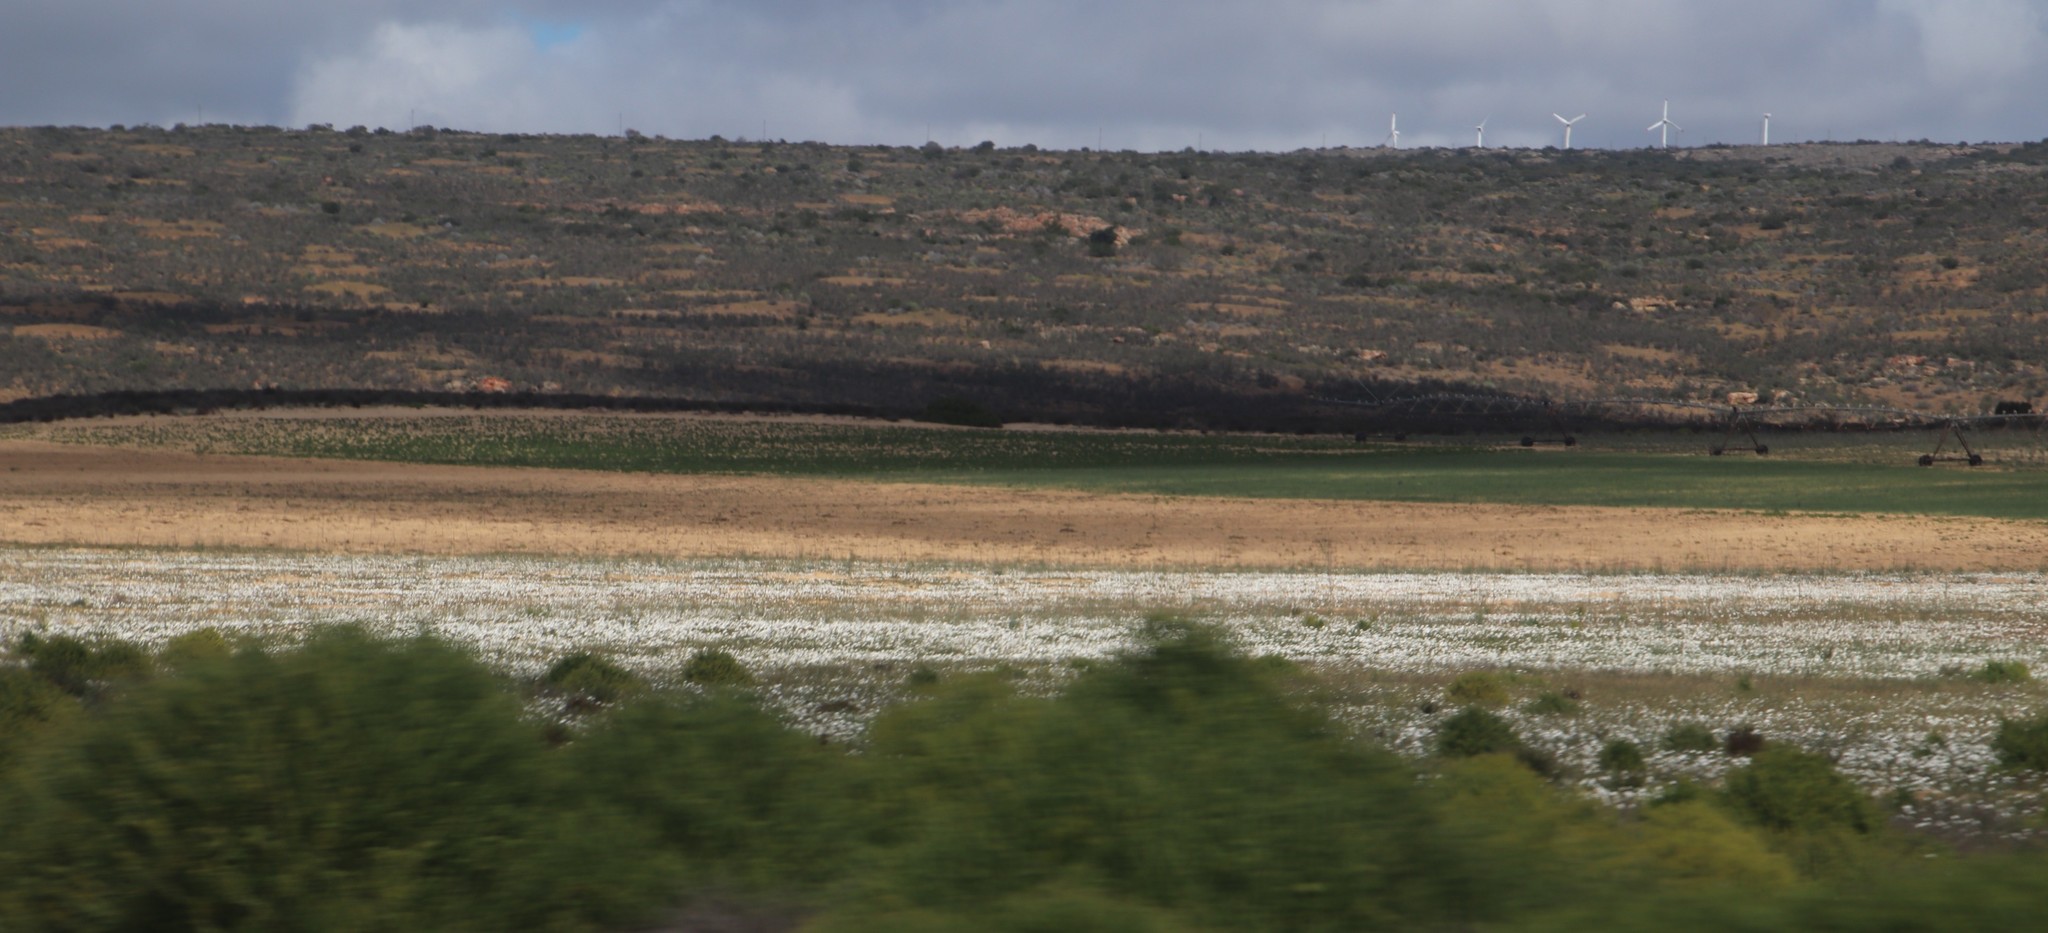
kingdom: Plantae
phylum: Tracheophyta
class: Magnoliopsida
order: Asterales
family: Asteraceae
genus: Dimorphotheca
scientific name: Dimorphotheca pluvialis
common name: Weather prophet
